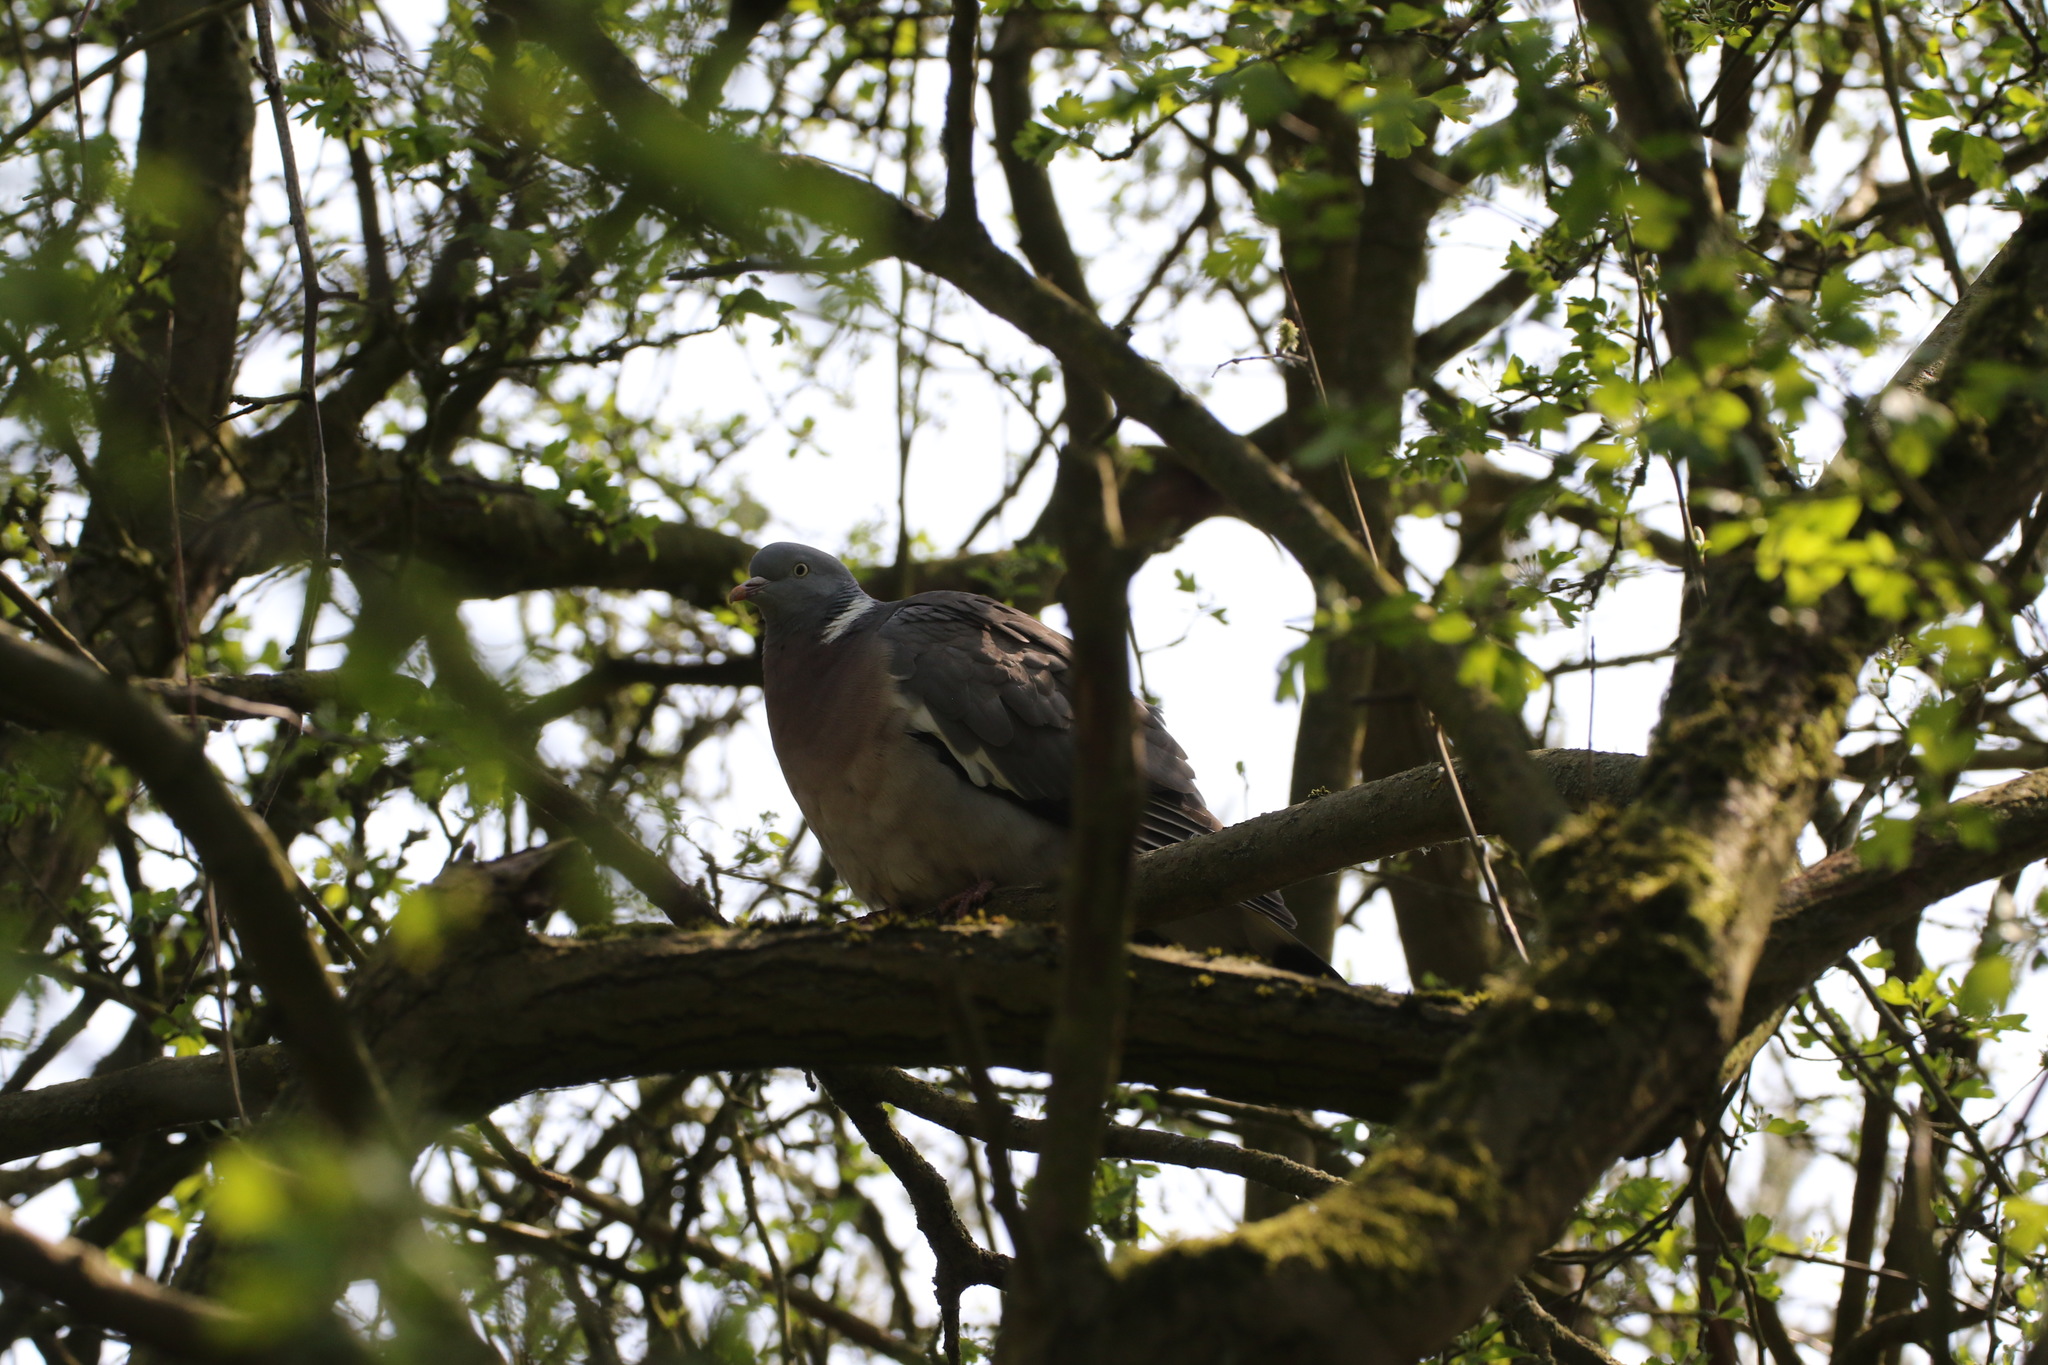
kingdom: Animalia
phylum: Chordata
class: Aves
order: Columbiformes
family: Columbidae
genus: Columba
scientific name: Columba palumbus
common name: Common wood pigeon
